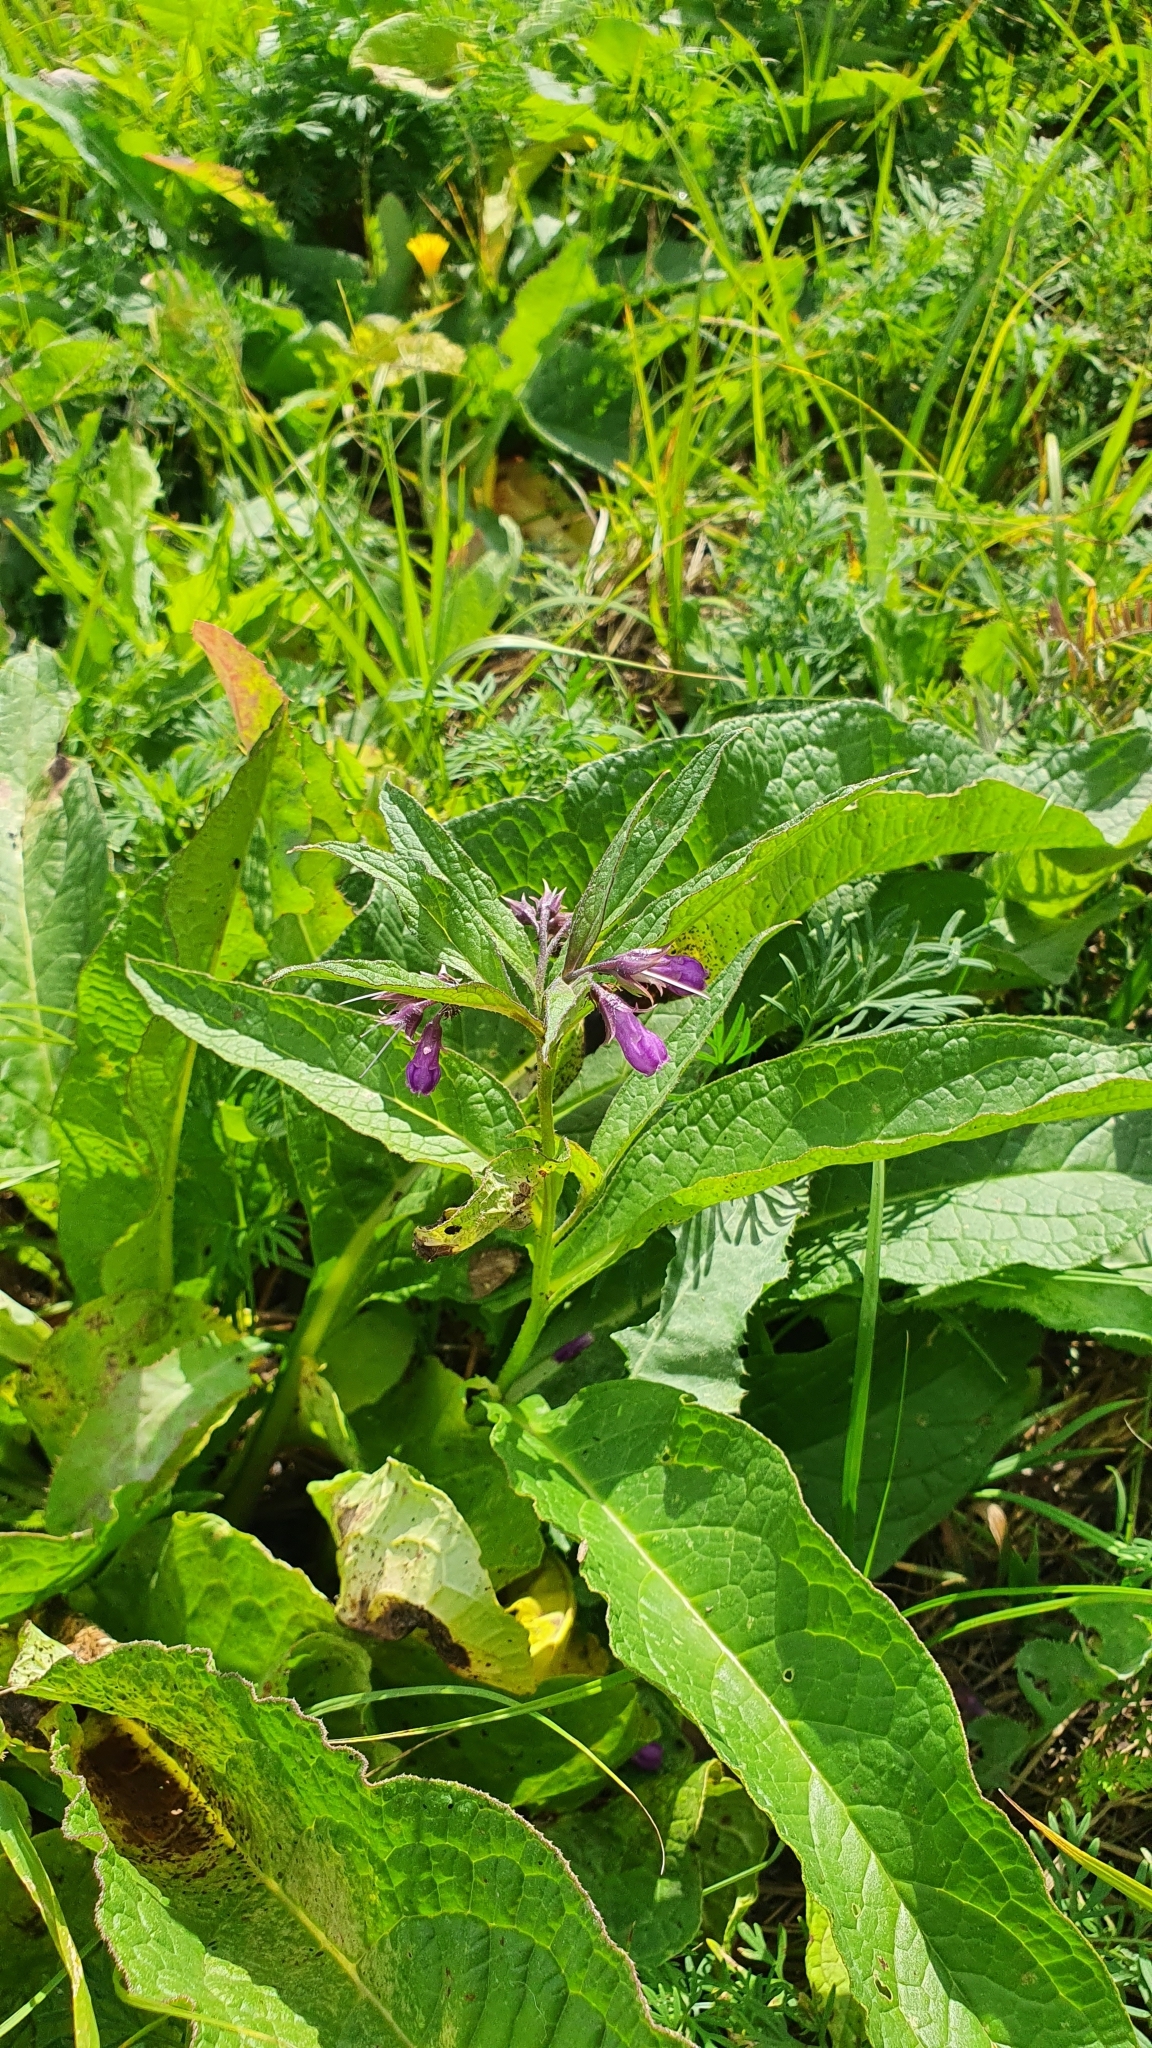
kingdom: Plantae
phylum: Tracheophyta
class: Magnoliopsida
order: Boraginales
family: Boraginaceae
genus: Symphytum
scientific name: Symphytum officinale
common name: Common comfrey
